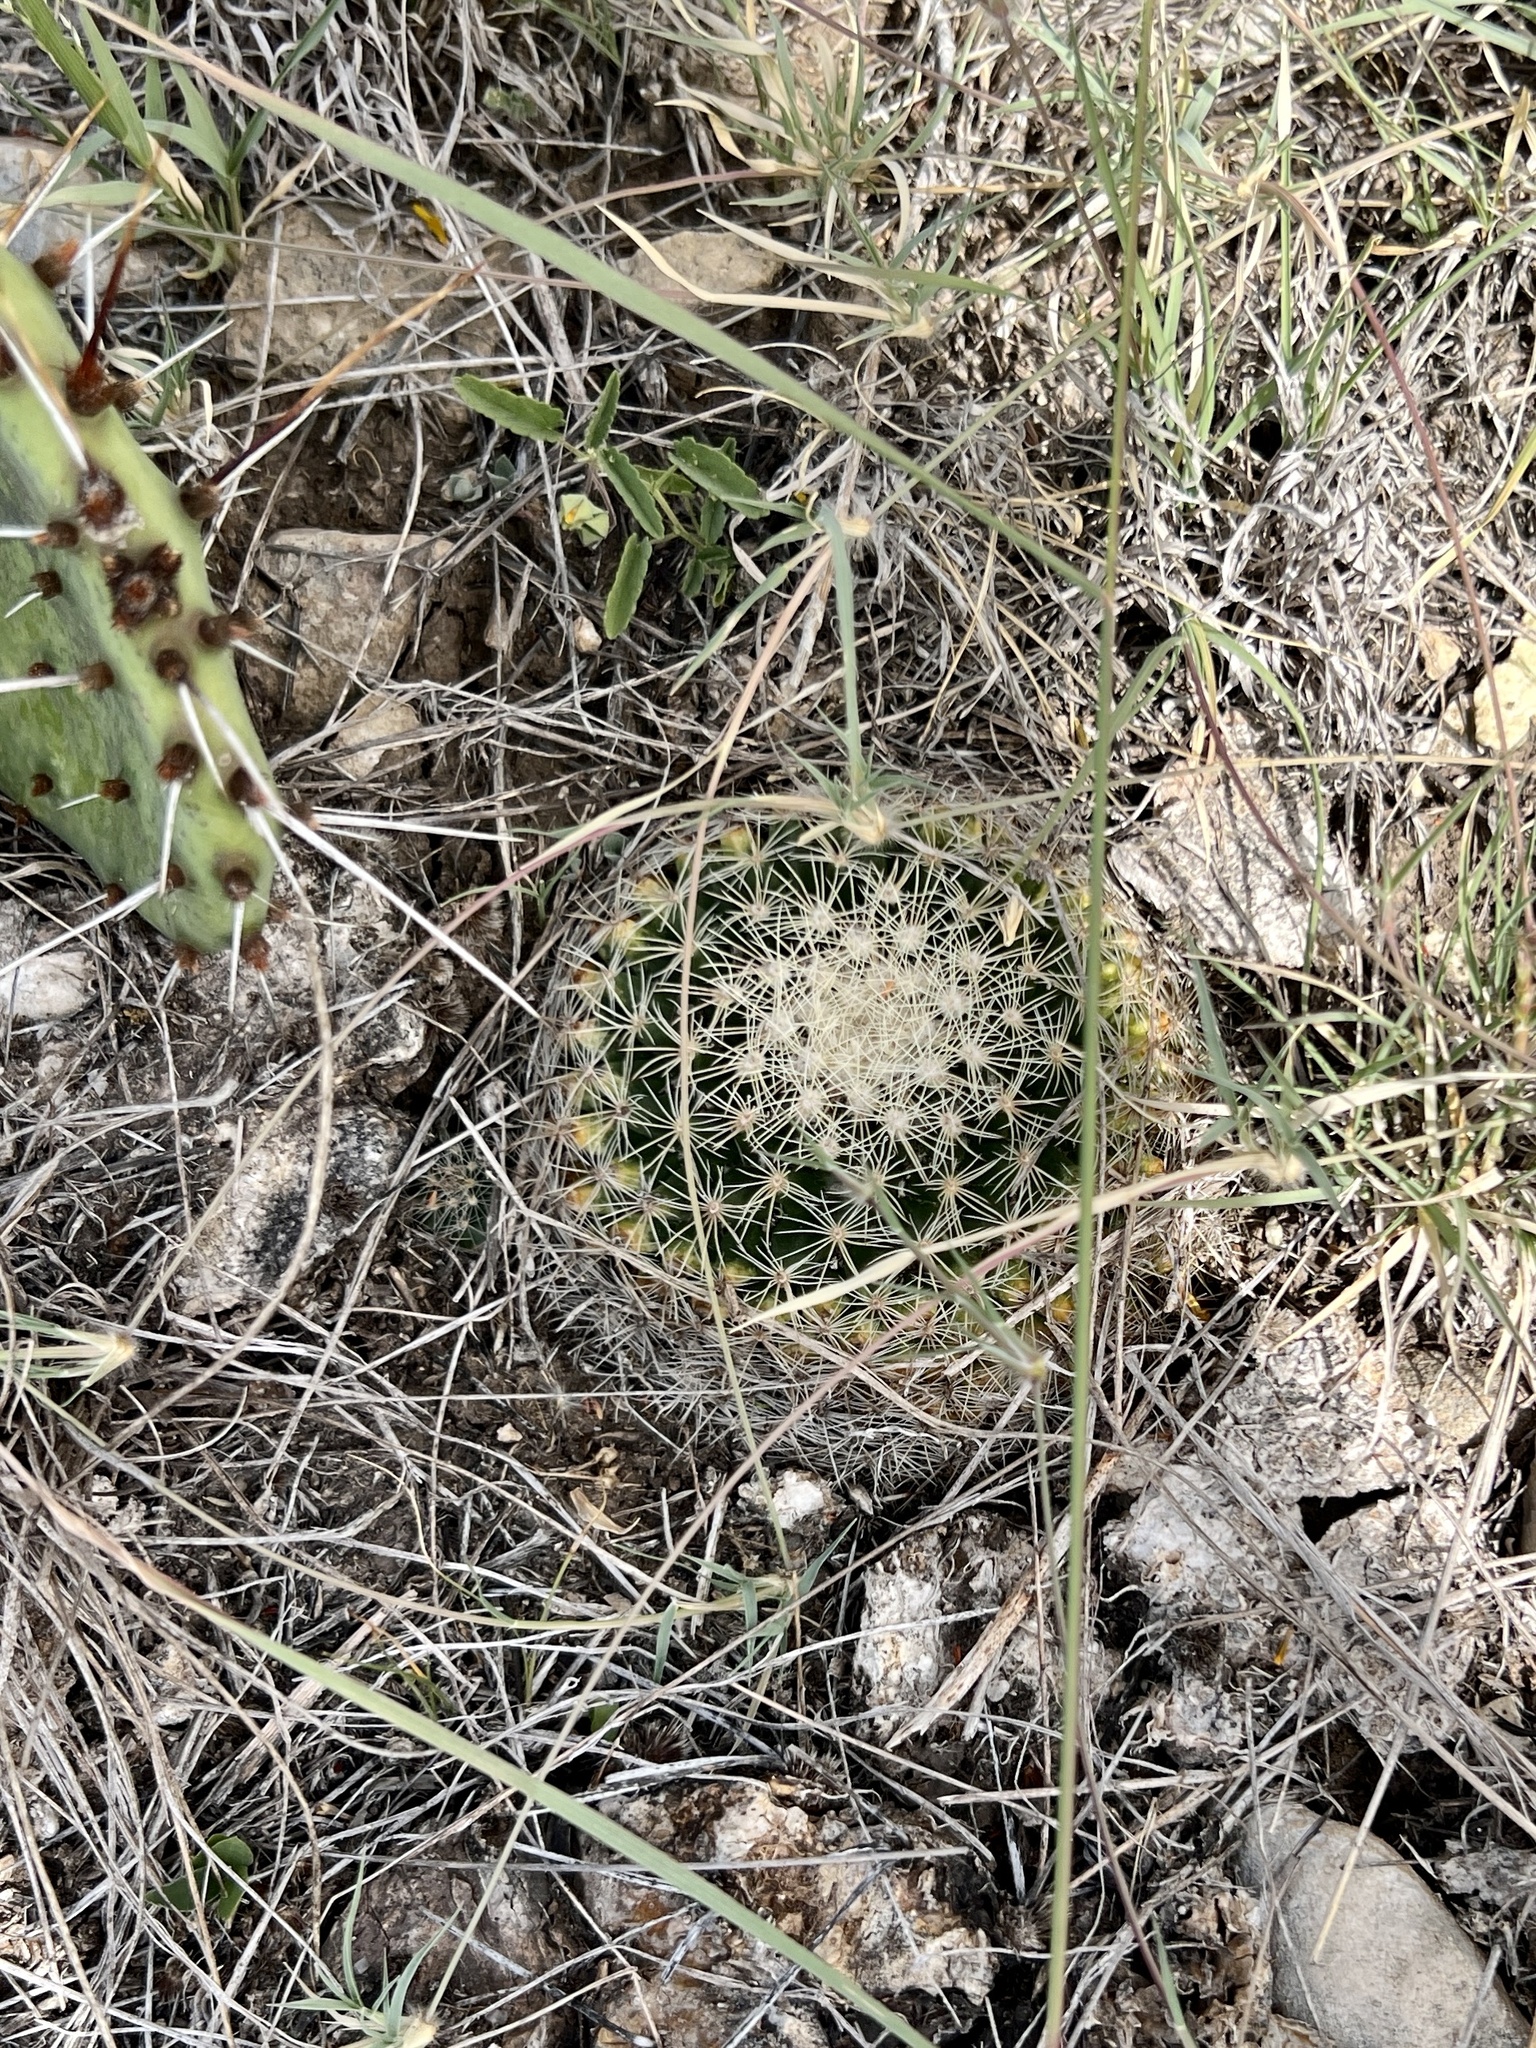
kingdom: Plantae
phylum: Tracheophyta
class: Magnoliopsida
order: Caryophyllales
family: Cactaceae
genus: Mammillaria
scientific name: Mammillaria heyderi
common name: Little nipple cactus
